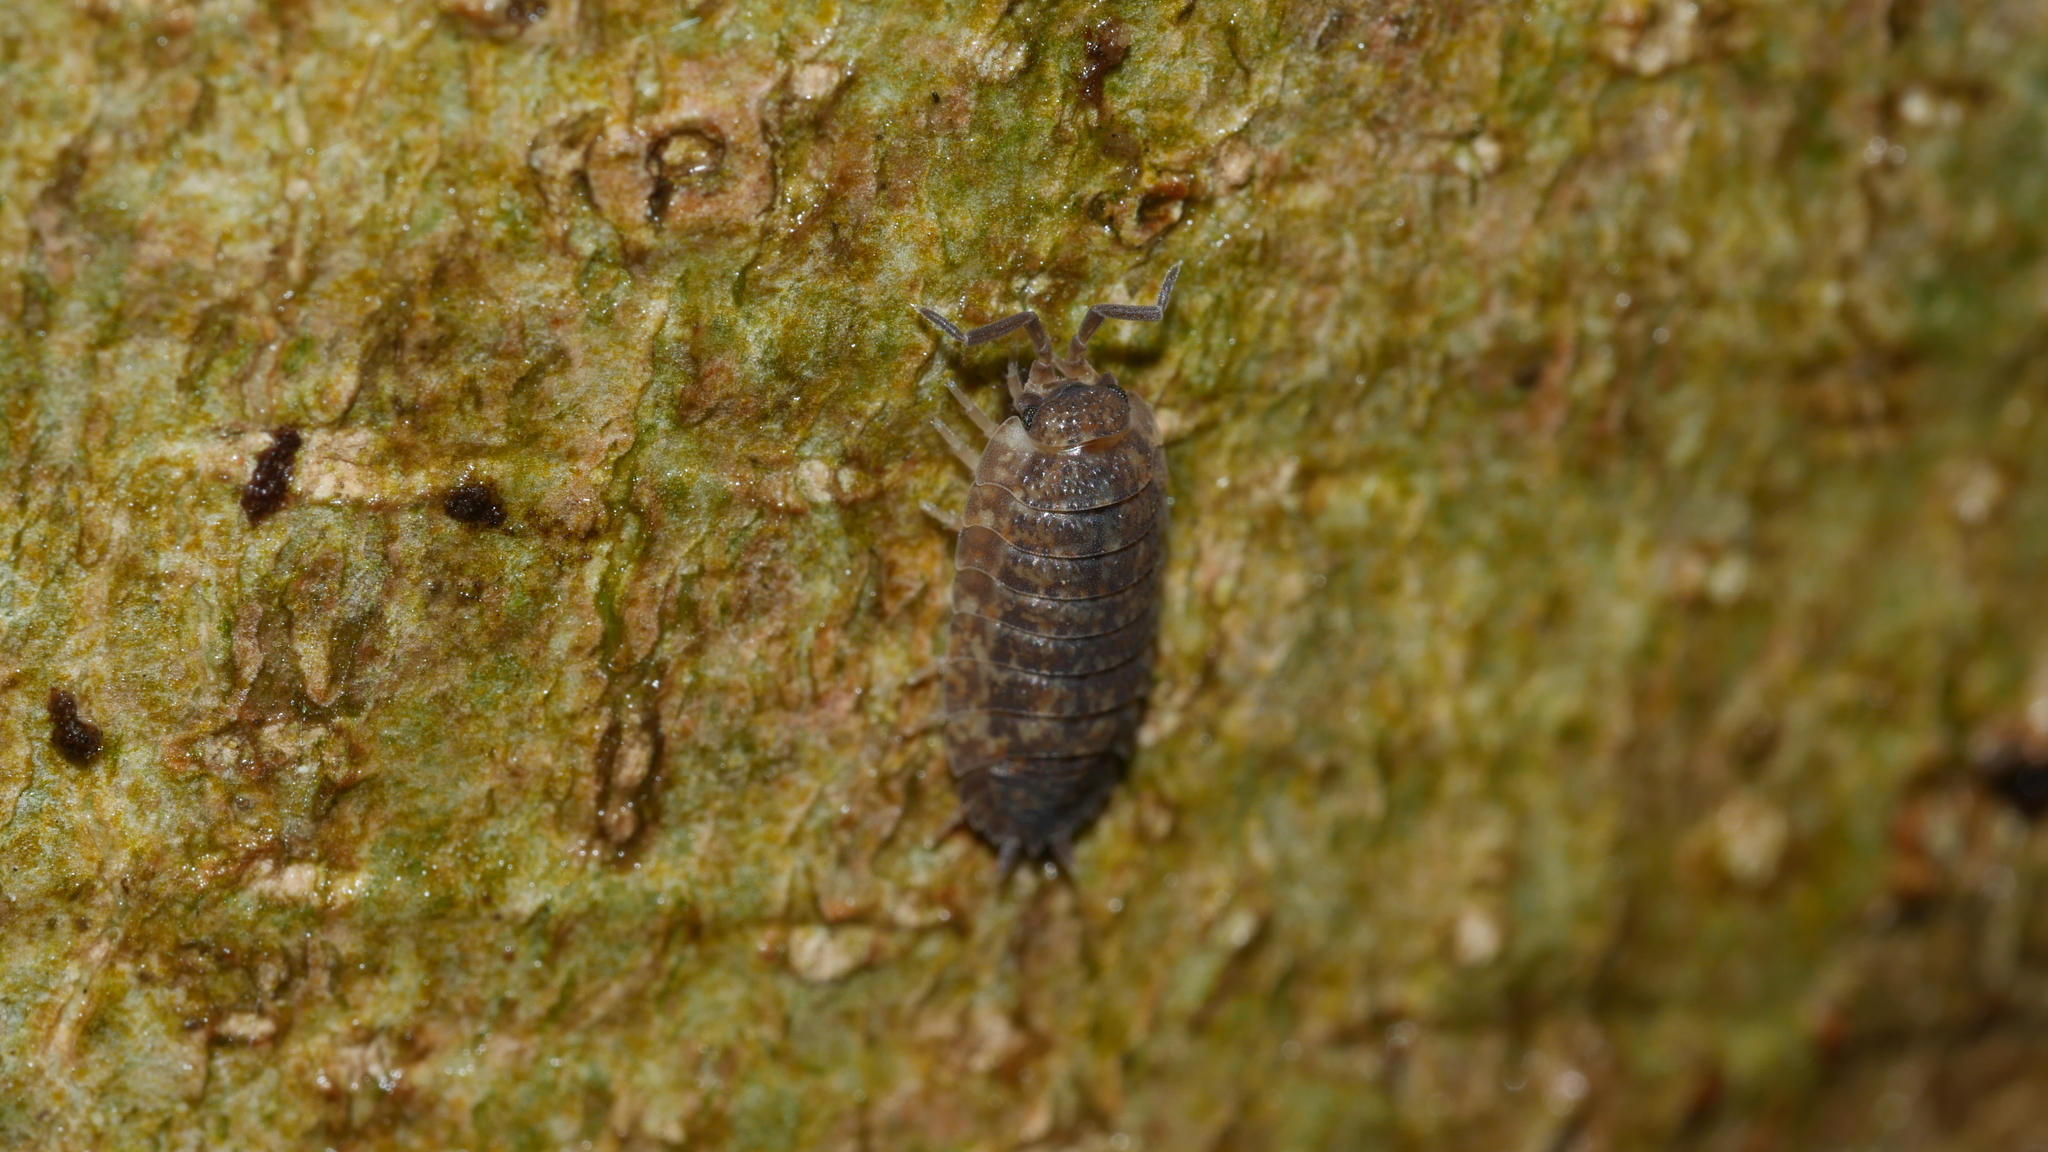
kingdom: Animalia
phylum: Arthropoda
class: Malacostraca
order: Isopoda
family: Porcellionidae
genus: Porcellio
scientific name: Porcellio scaber
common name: Common rough woodlouse
